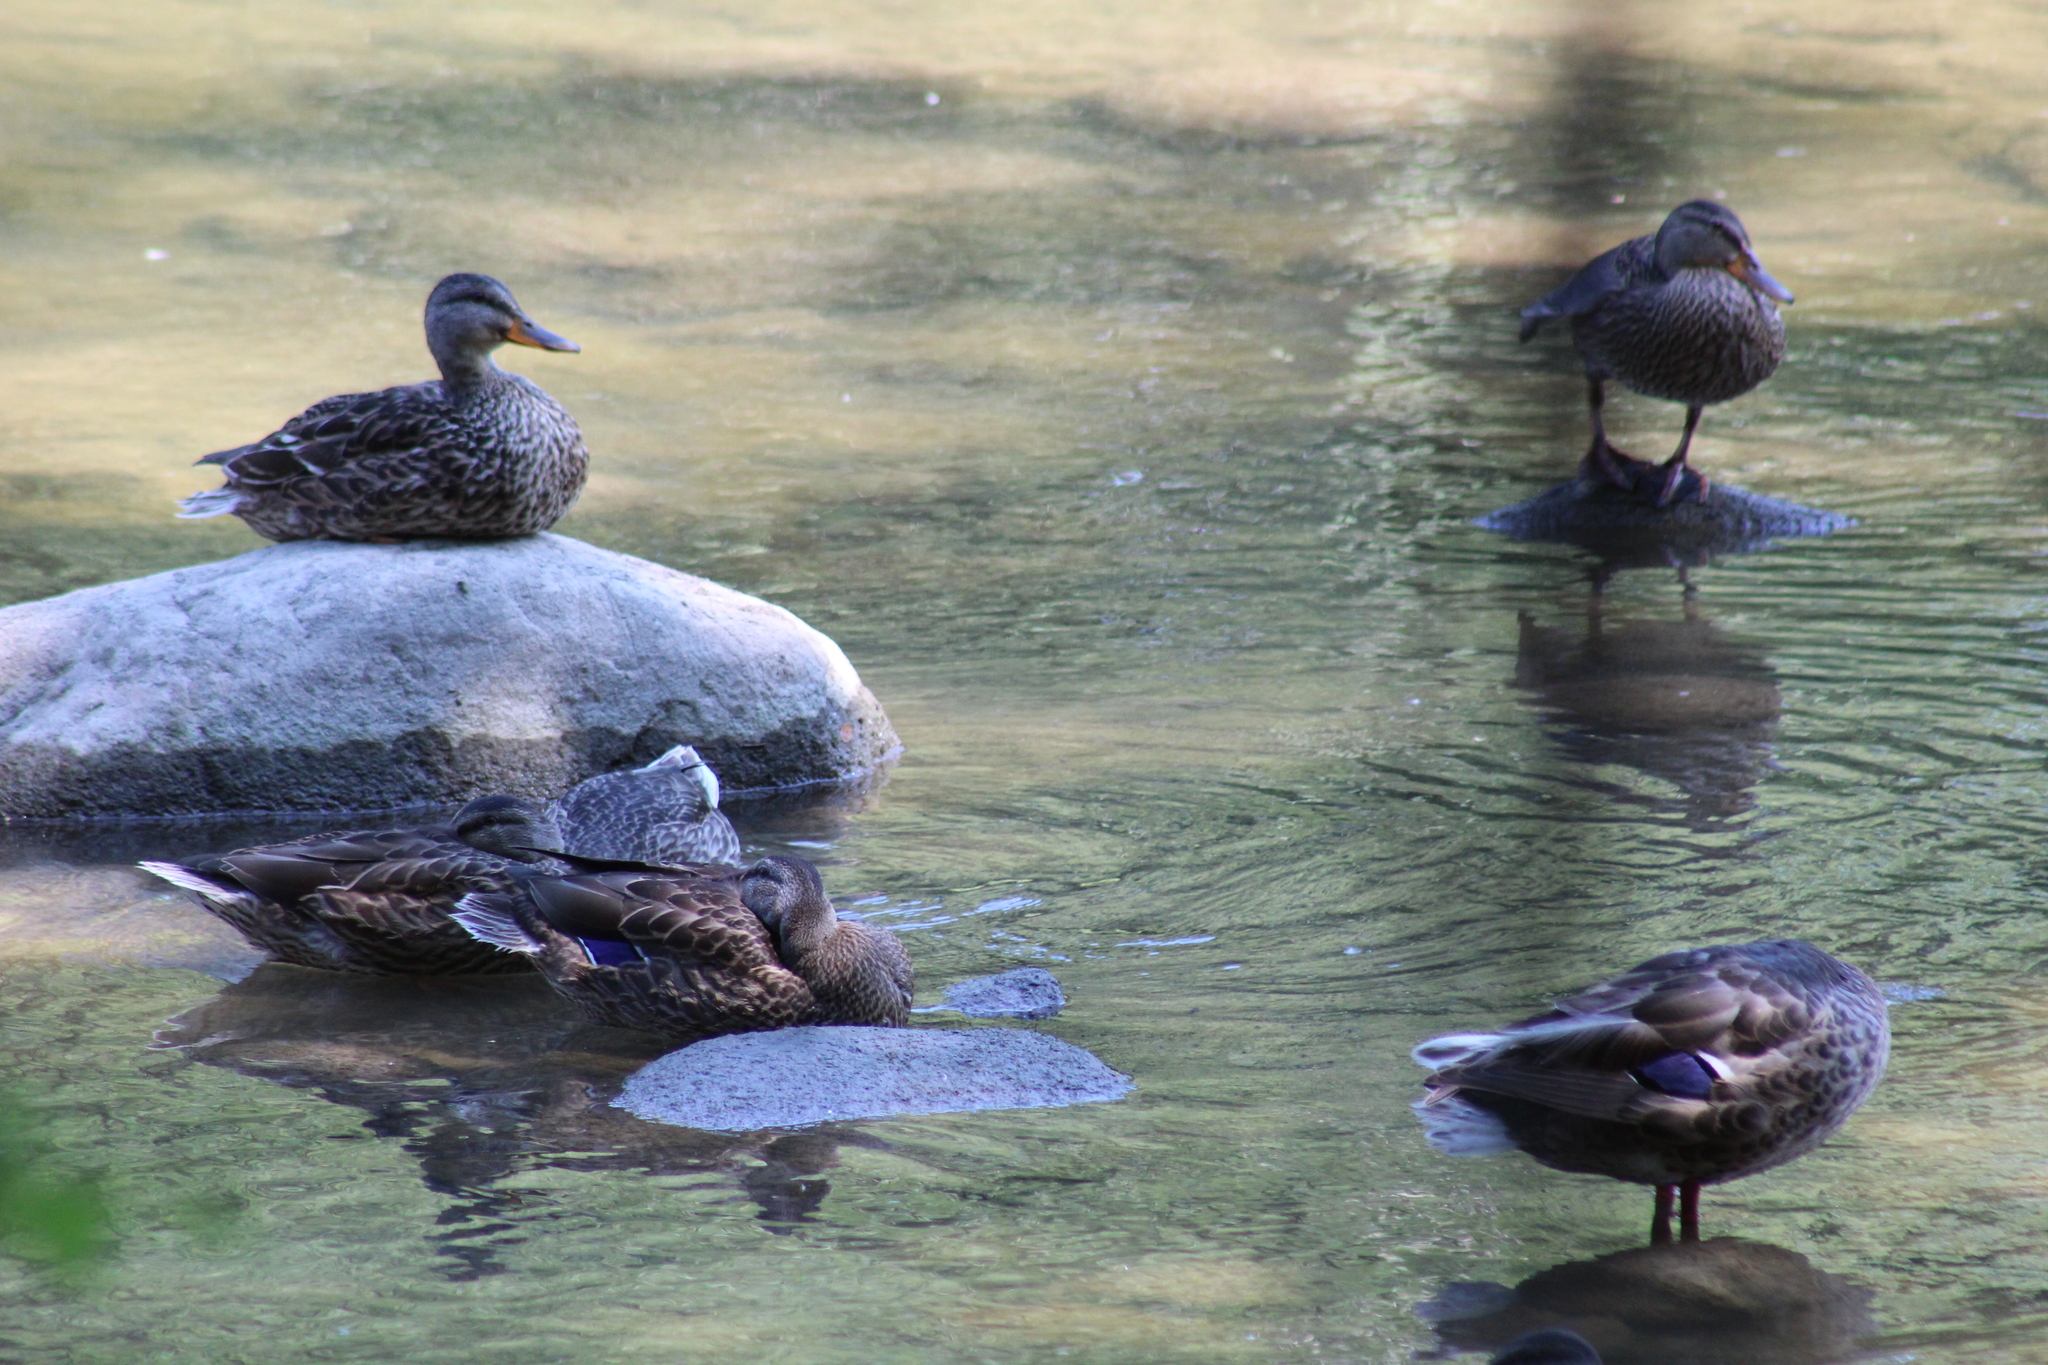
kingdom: Animalia
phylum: Chordata
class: Aves
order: Anseriformes
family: Anatidae
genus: Anas
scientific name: Anas platyrhynchos
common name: Mallard
